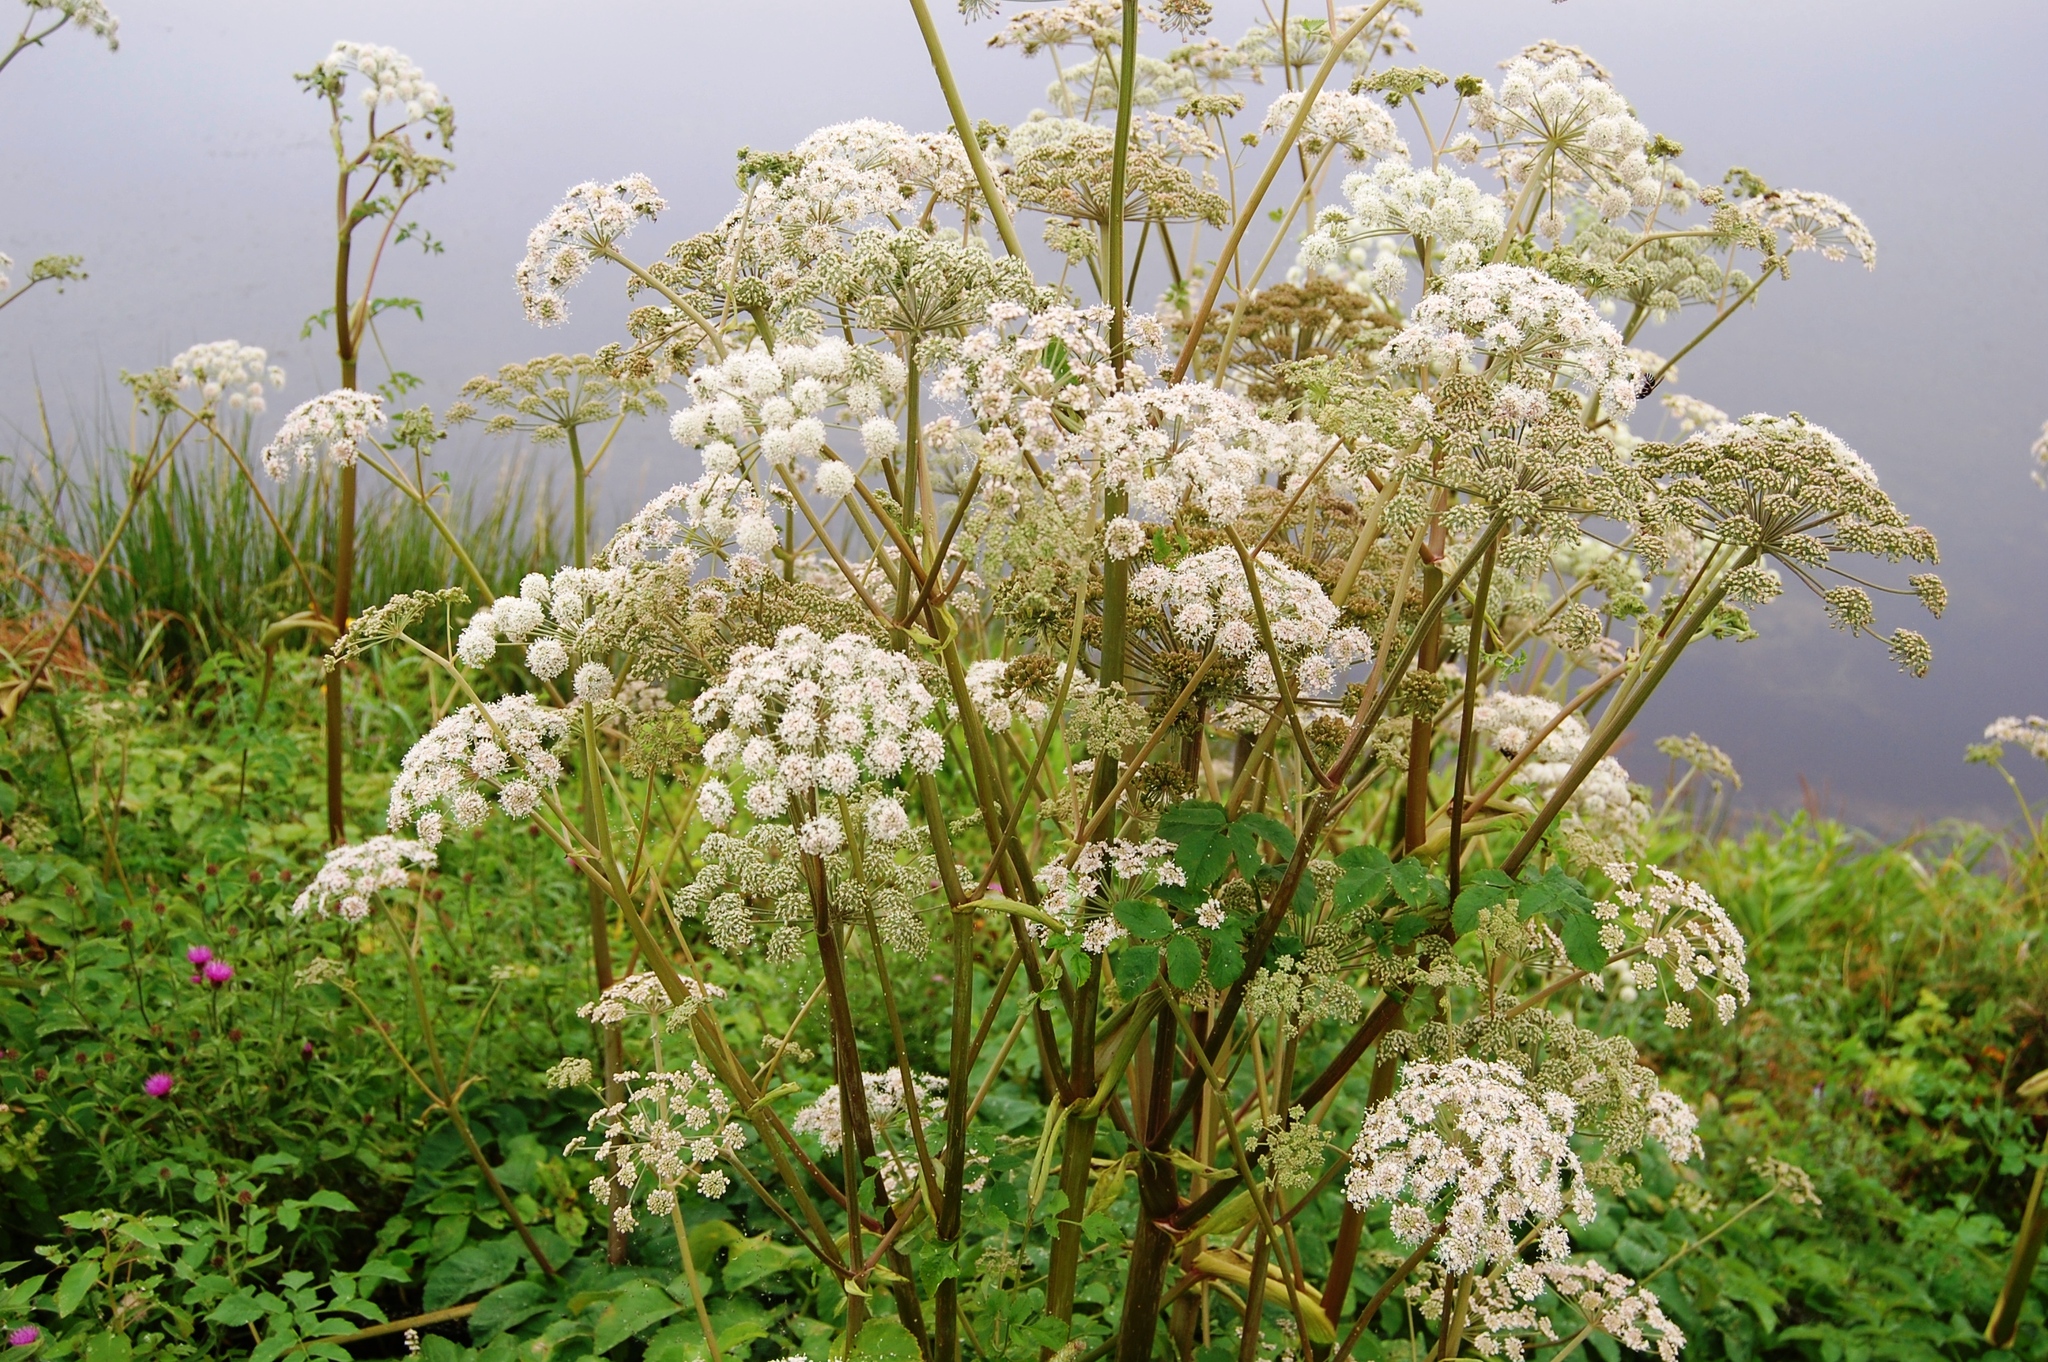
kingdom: Plantae
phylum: Tracheophyta
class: Magnoliopsida
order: Apiales
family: Apiaceae
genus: Angelica
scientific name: Angelica sylvestris
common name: Wild angelica
